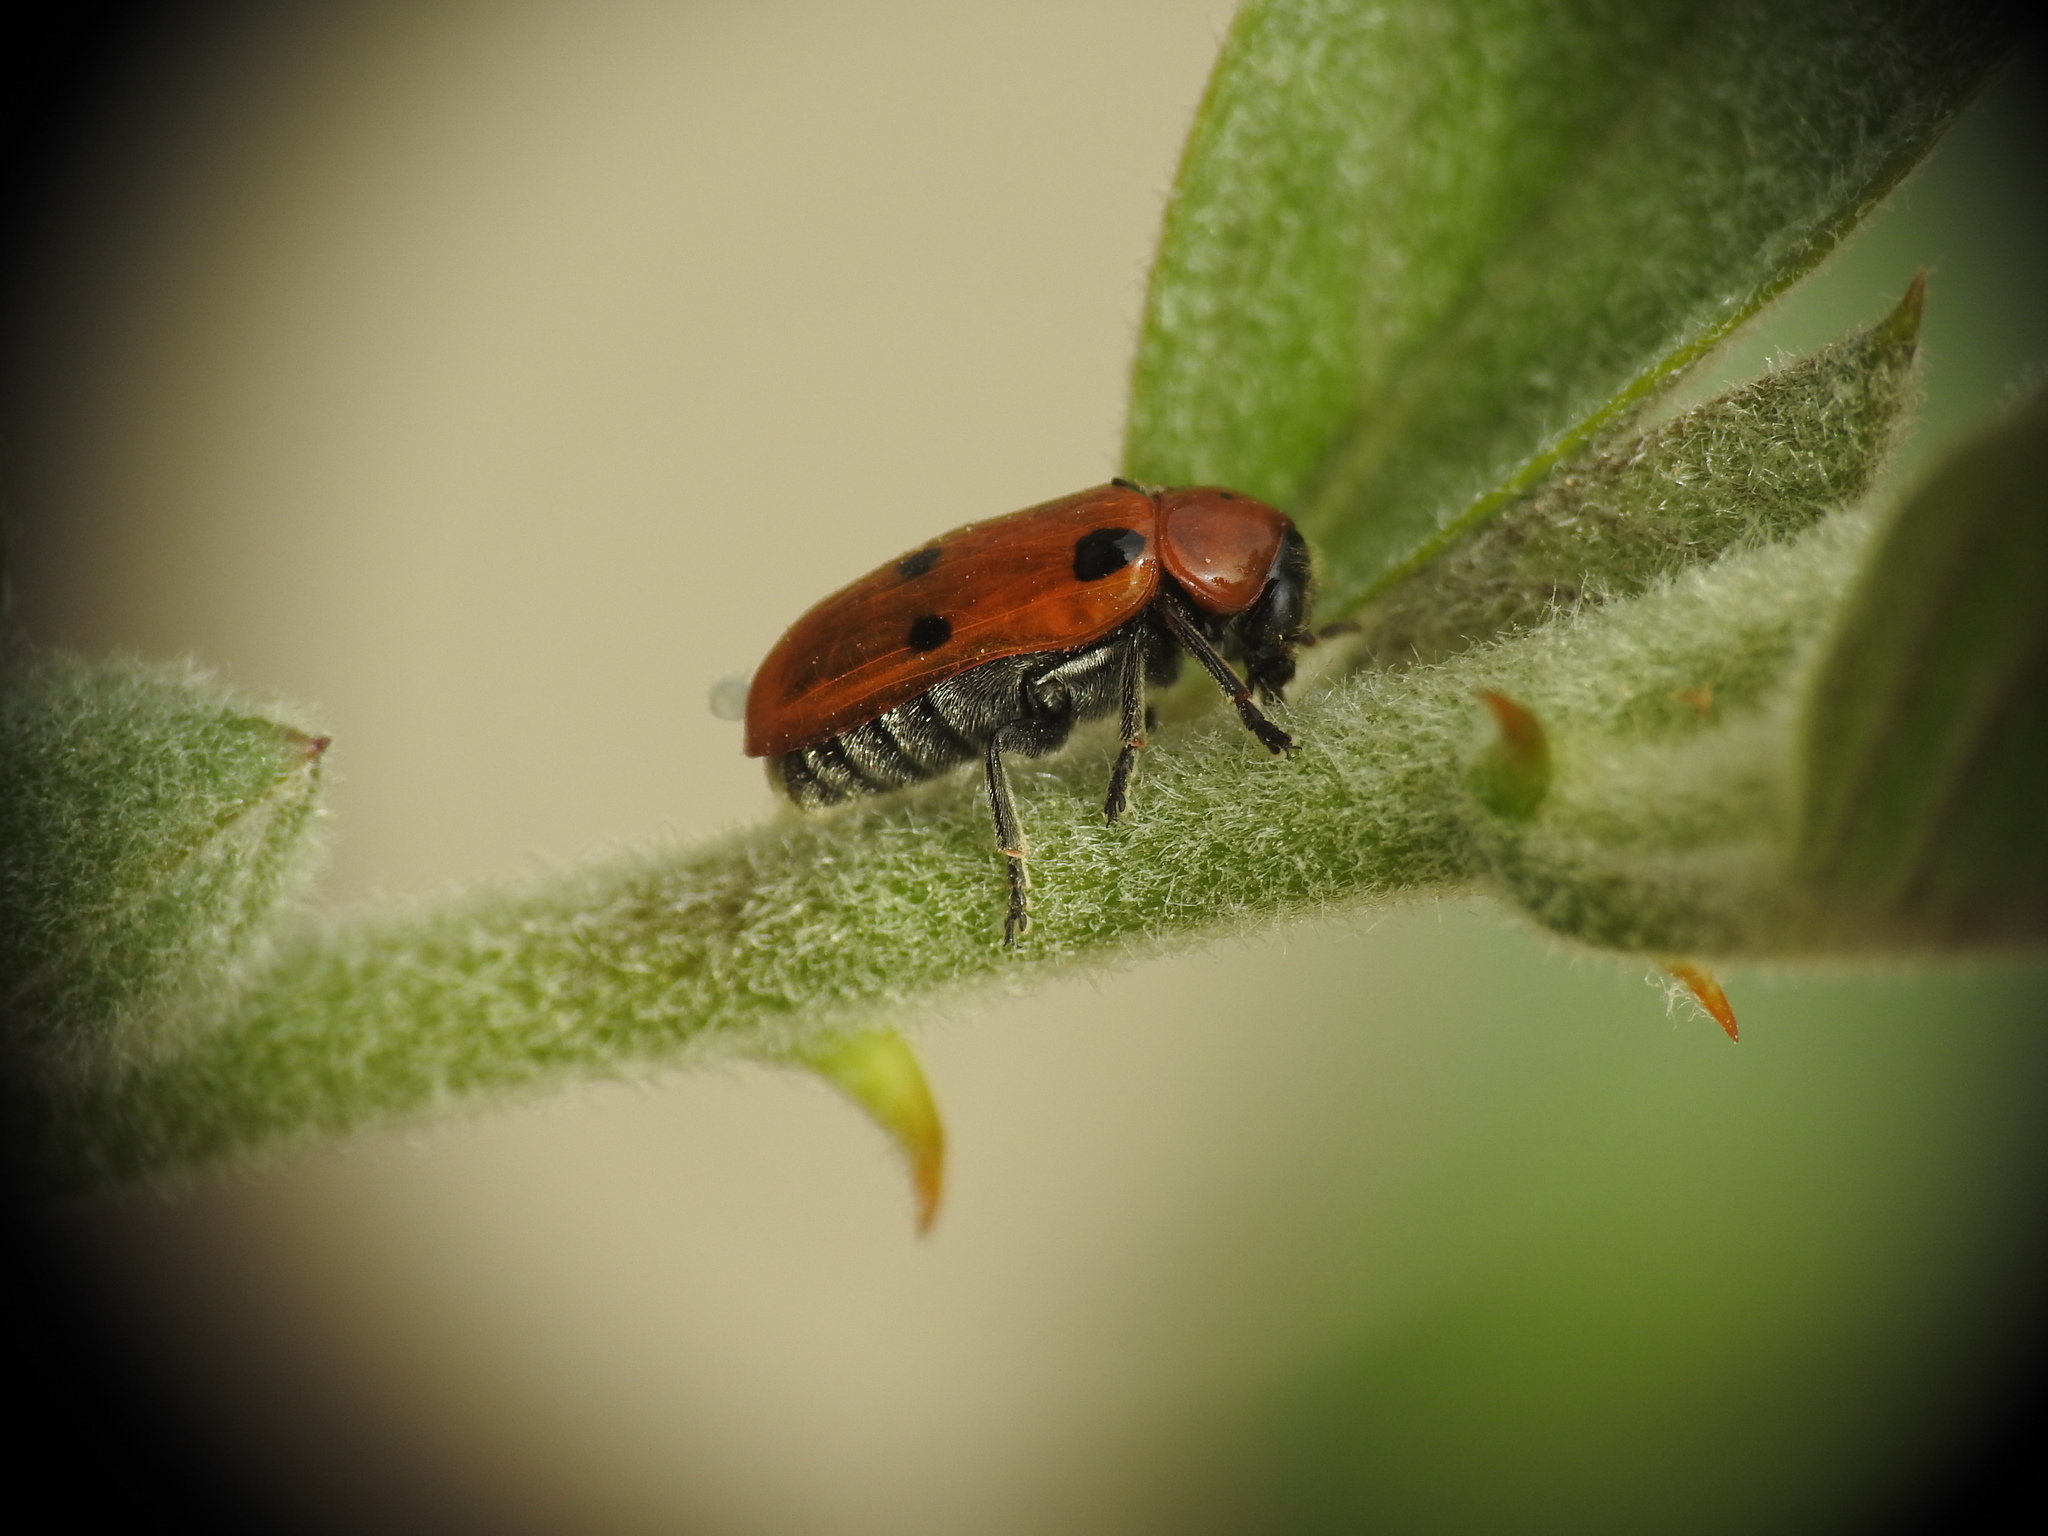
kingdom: Animalia
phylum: Arthropoda
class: Insecta
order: Coleoptera
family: Chrysomelidae
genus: Clytra
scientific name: Clytra novempunctata
